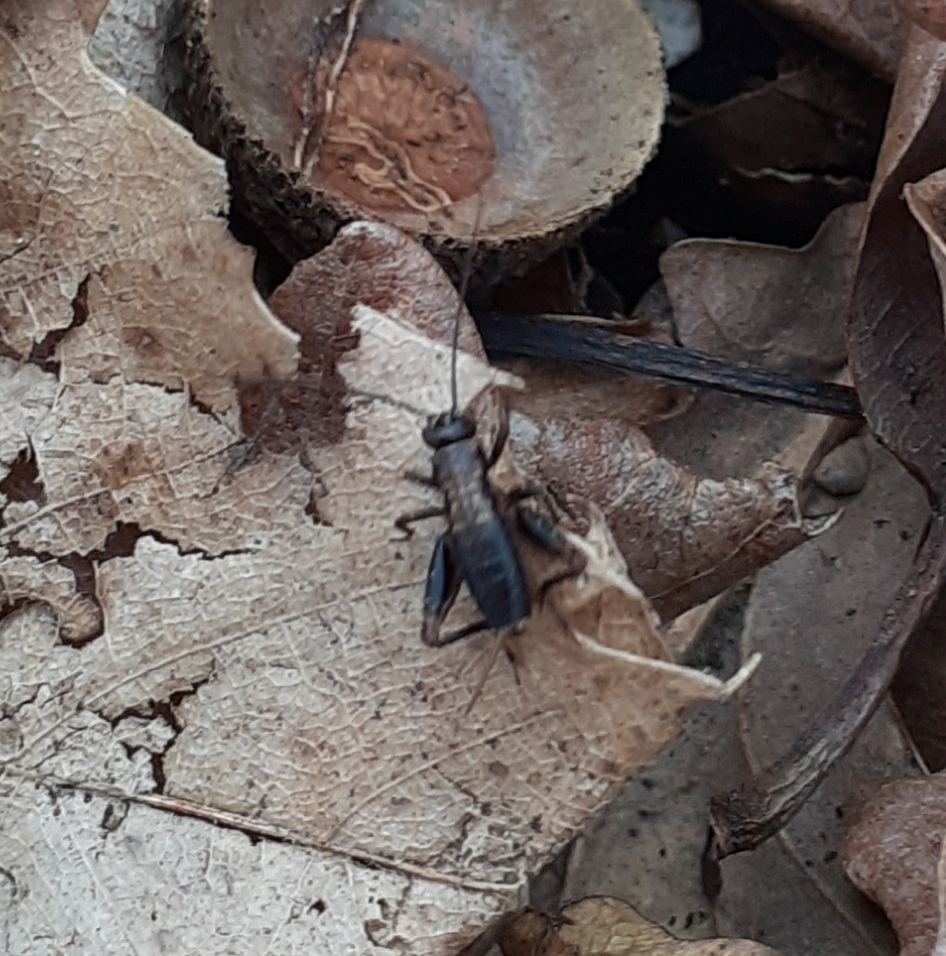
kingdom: Animalia
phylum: Arthropoda
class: Insecta
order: Orthoptera
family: Trigonidiidae
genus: Nemobius
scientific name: Nemobius sylvestris
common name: Wood-cricket
